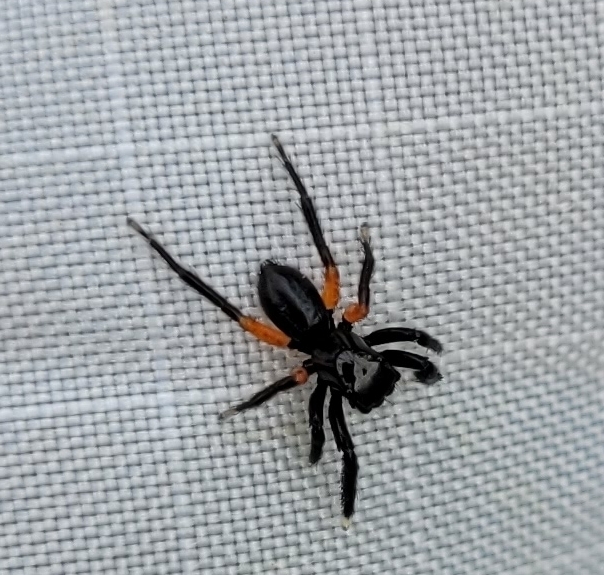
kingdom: Animalia
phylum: Arthropoda
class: Arachnida
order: Araneae
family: Salticidae
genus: Euophrys
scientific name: Euophrys monadnock
